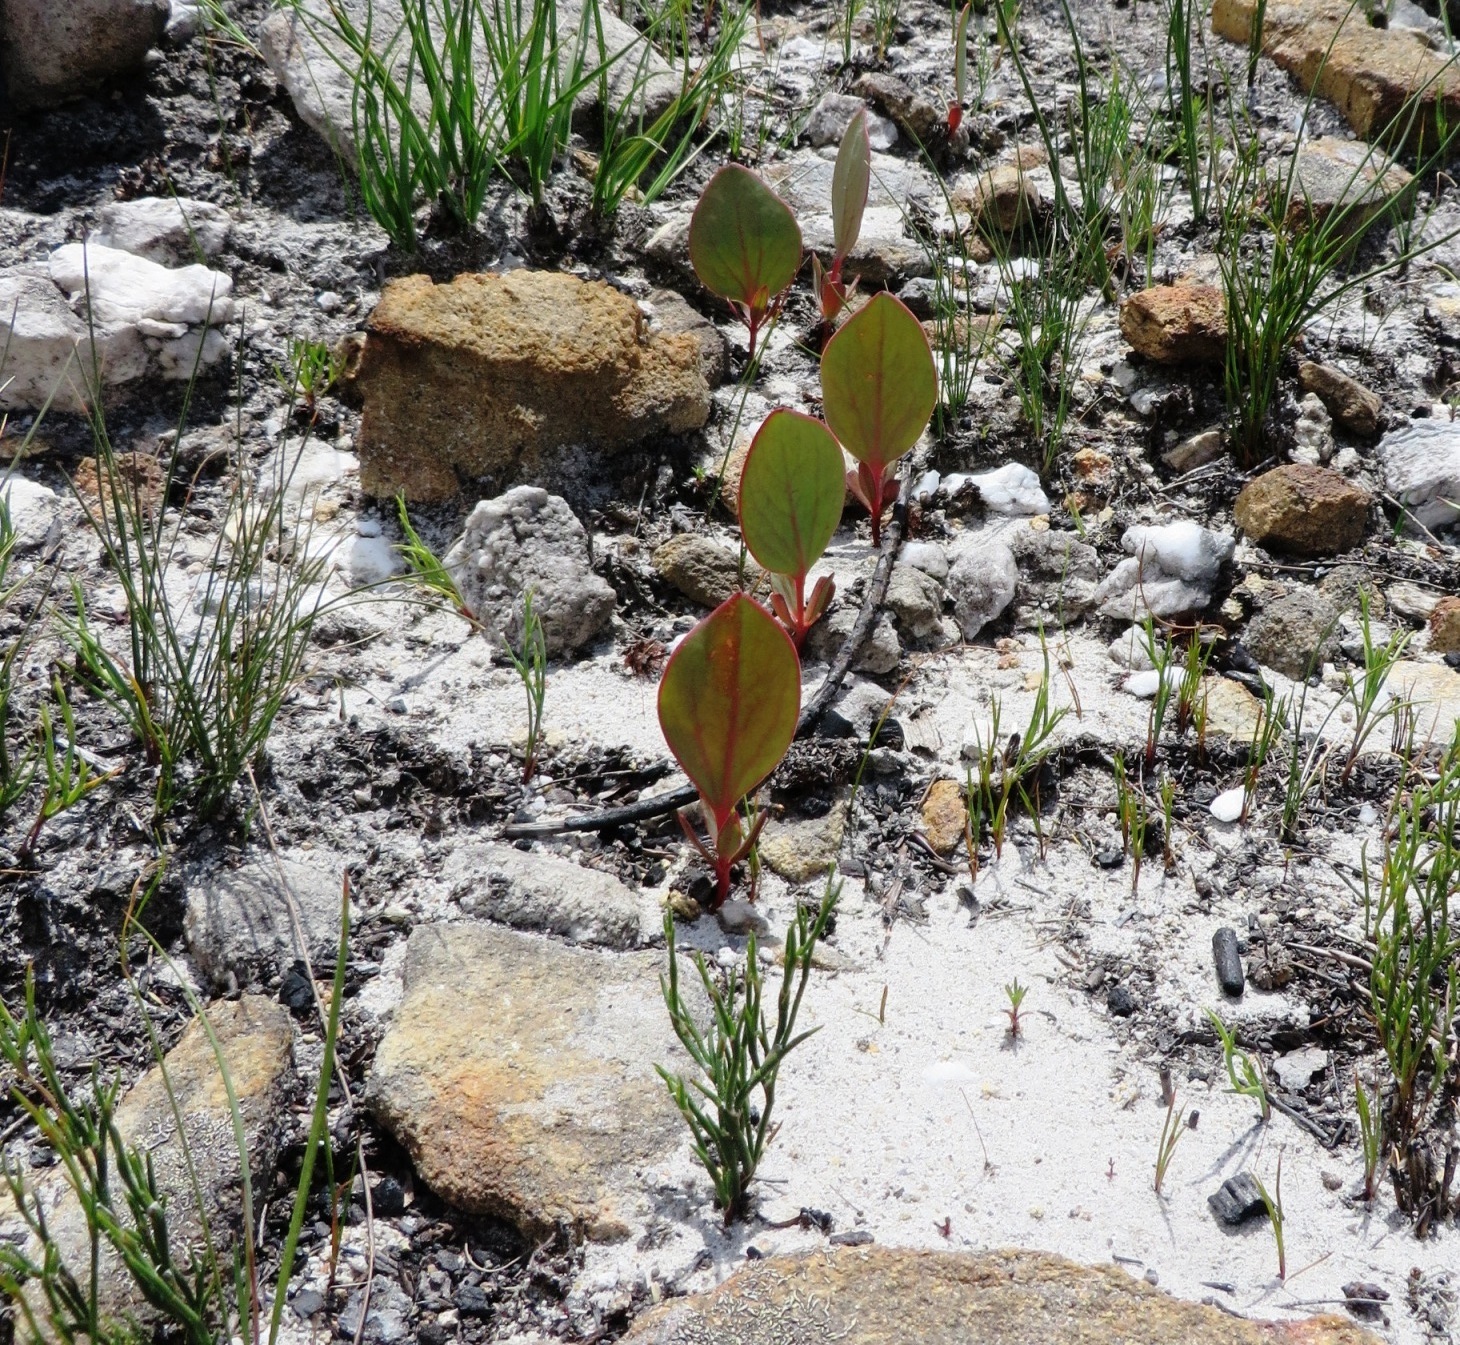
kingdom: Plantae
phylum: Tracheophyta
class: Magnoliopsida
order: Proteales
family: Proteaceae
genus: Protea
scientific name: Protea cordata
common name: Heart-leaf sugarbush
